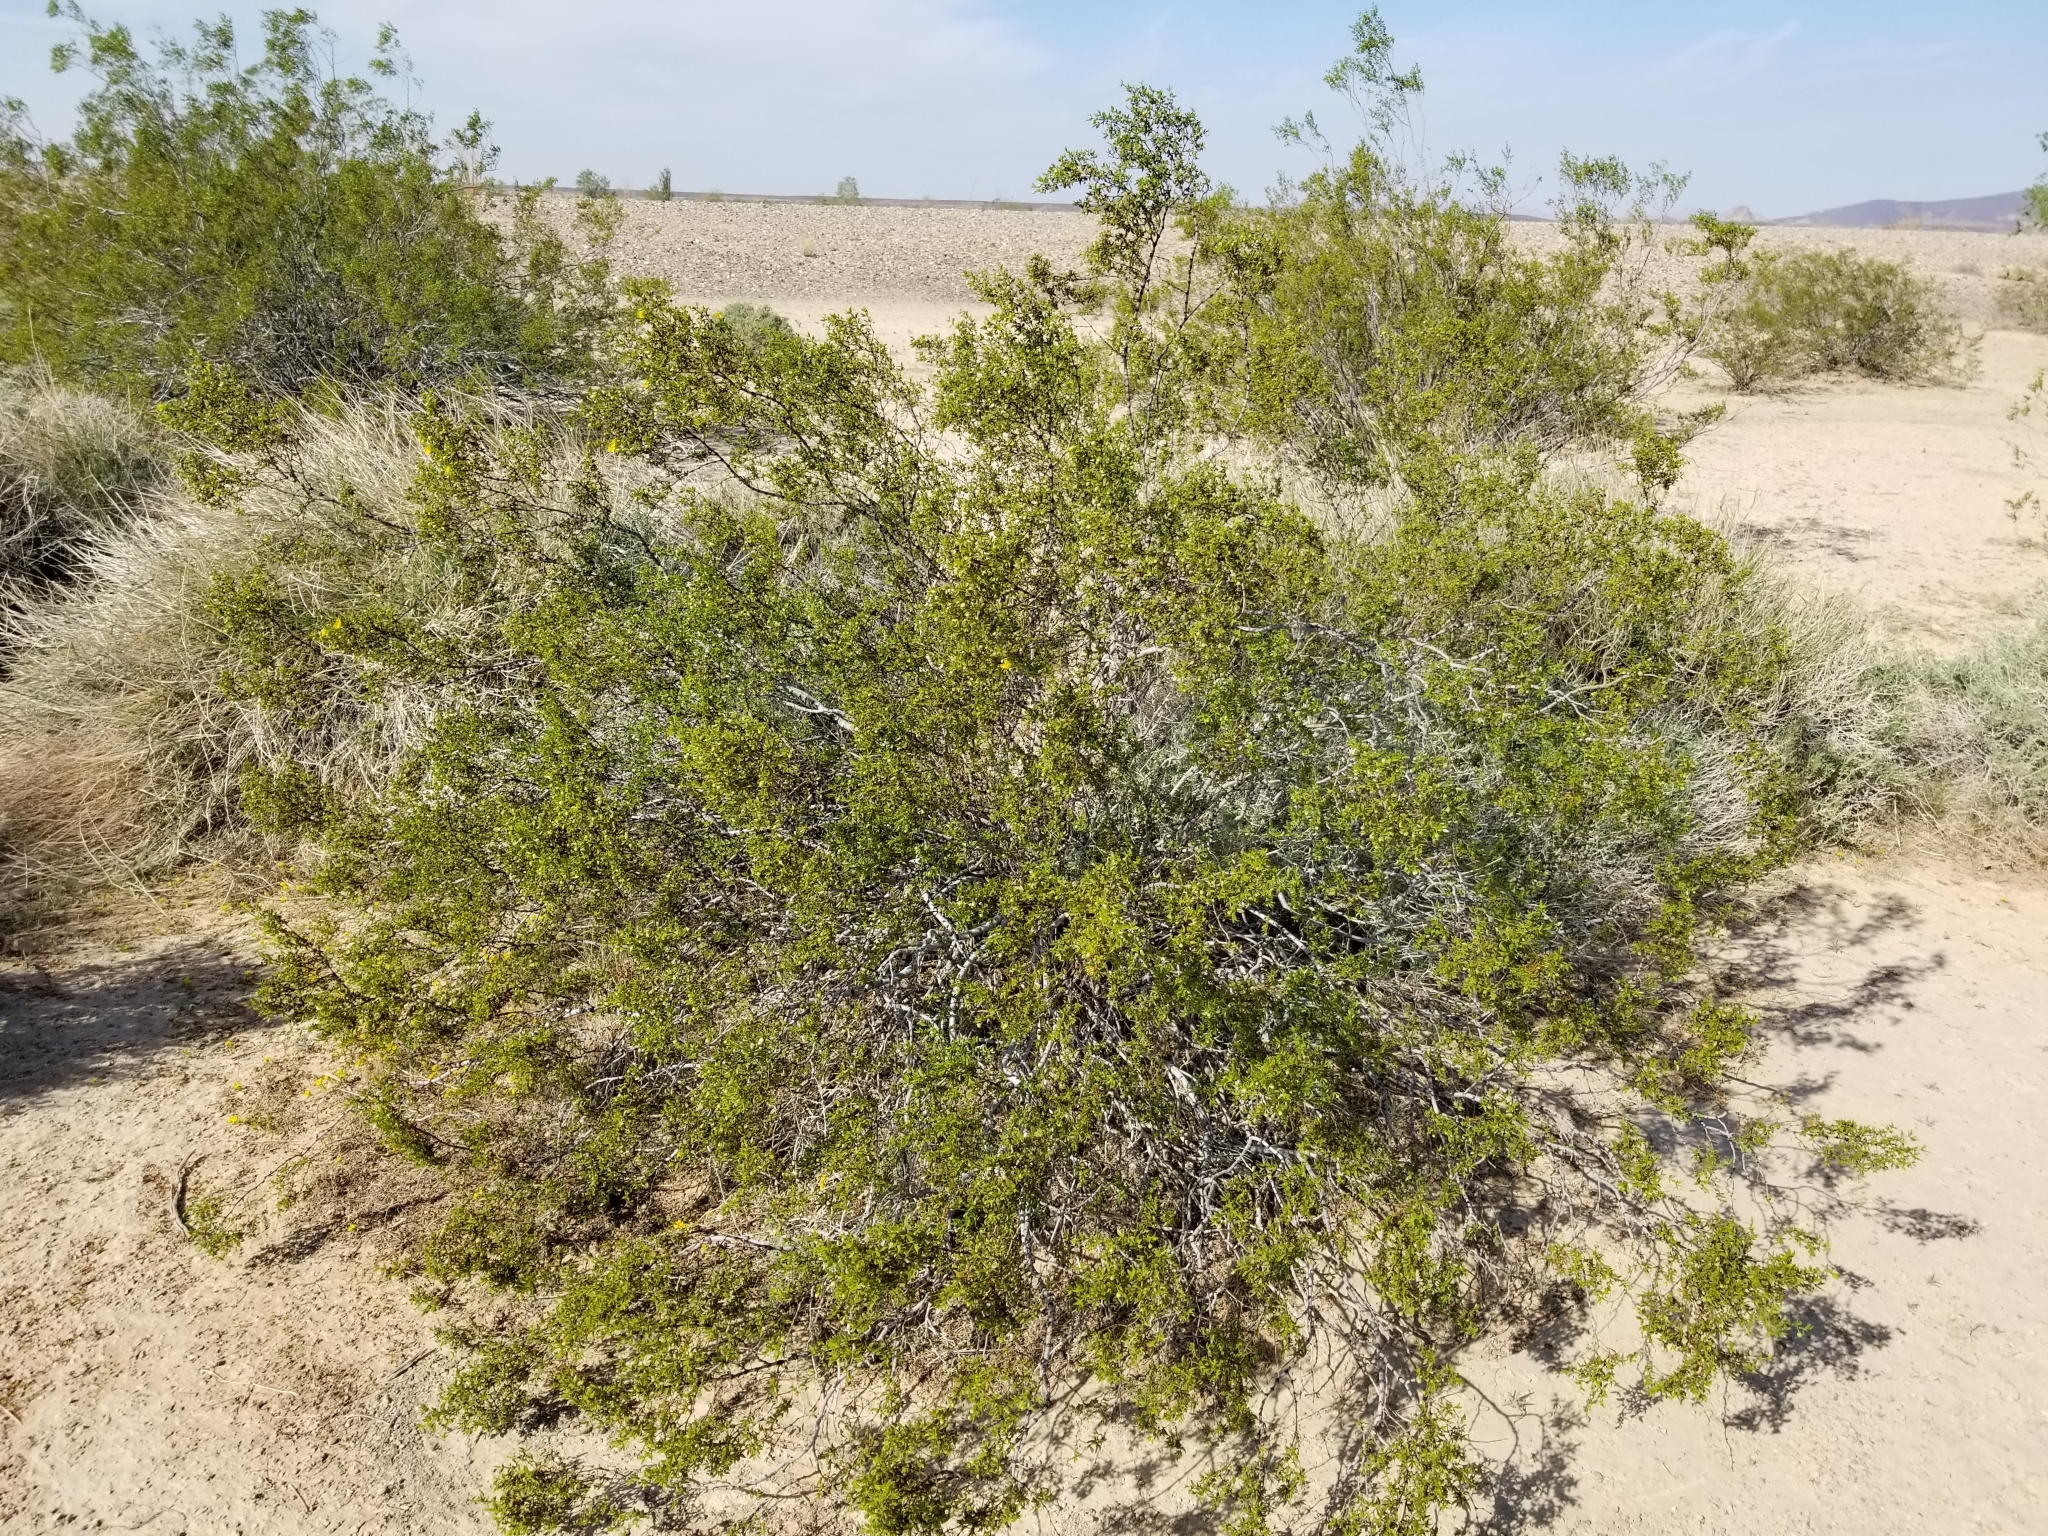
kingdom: Plantae
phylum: Tracheophyta
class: Magnoliopsida
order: Zygophyllales
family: Zygophyllaceae
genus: Larrea
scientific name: Larrea tridentata
